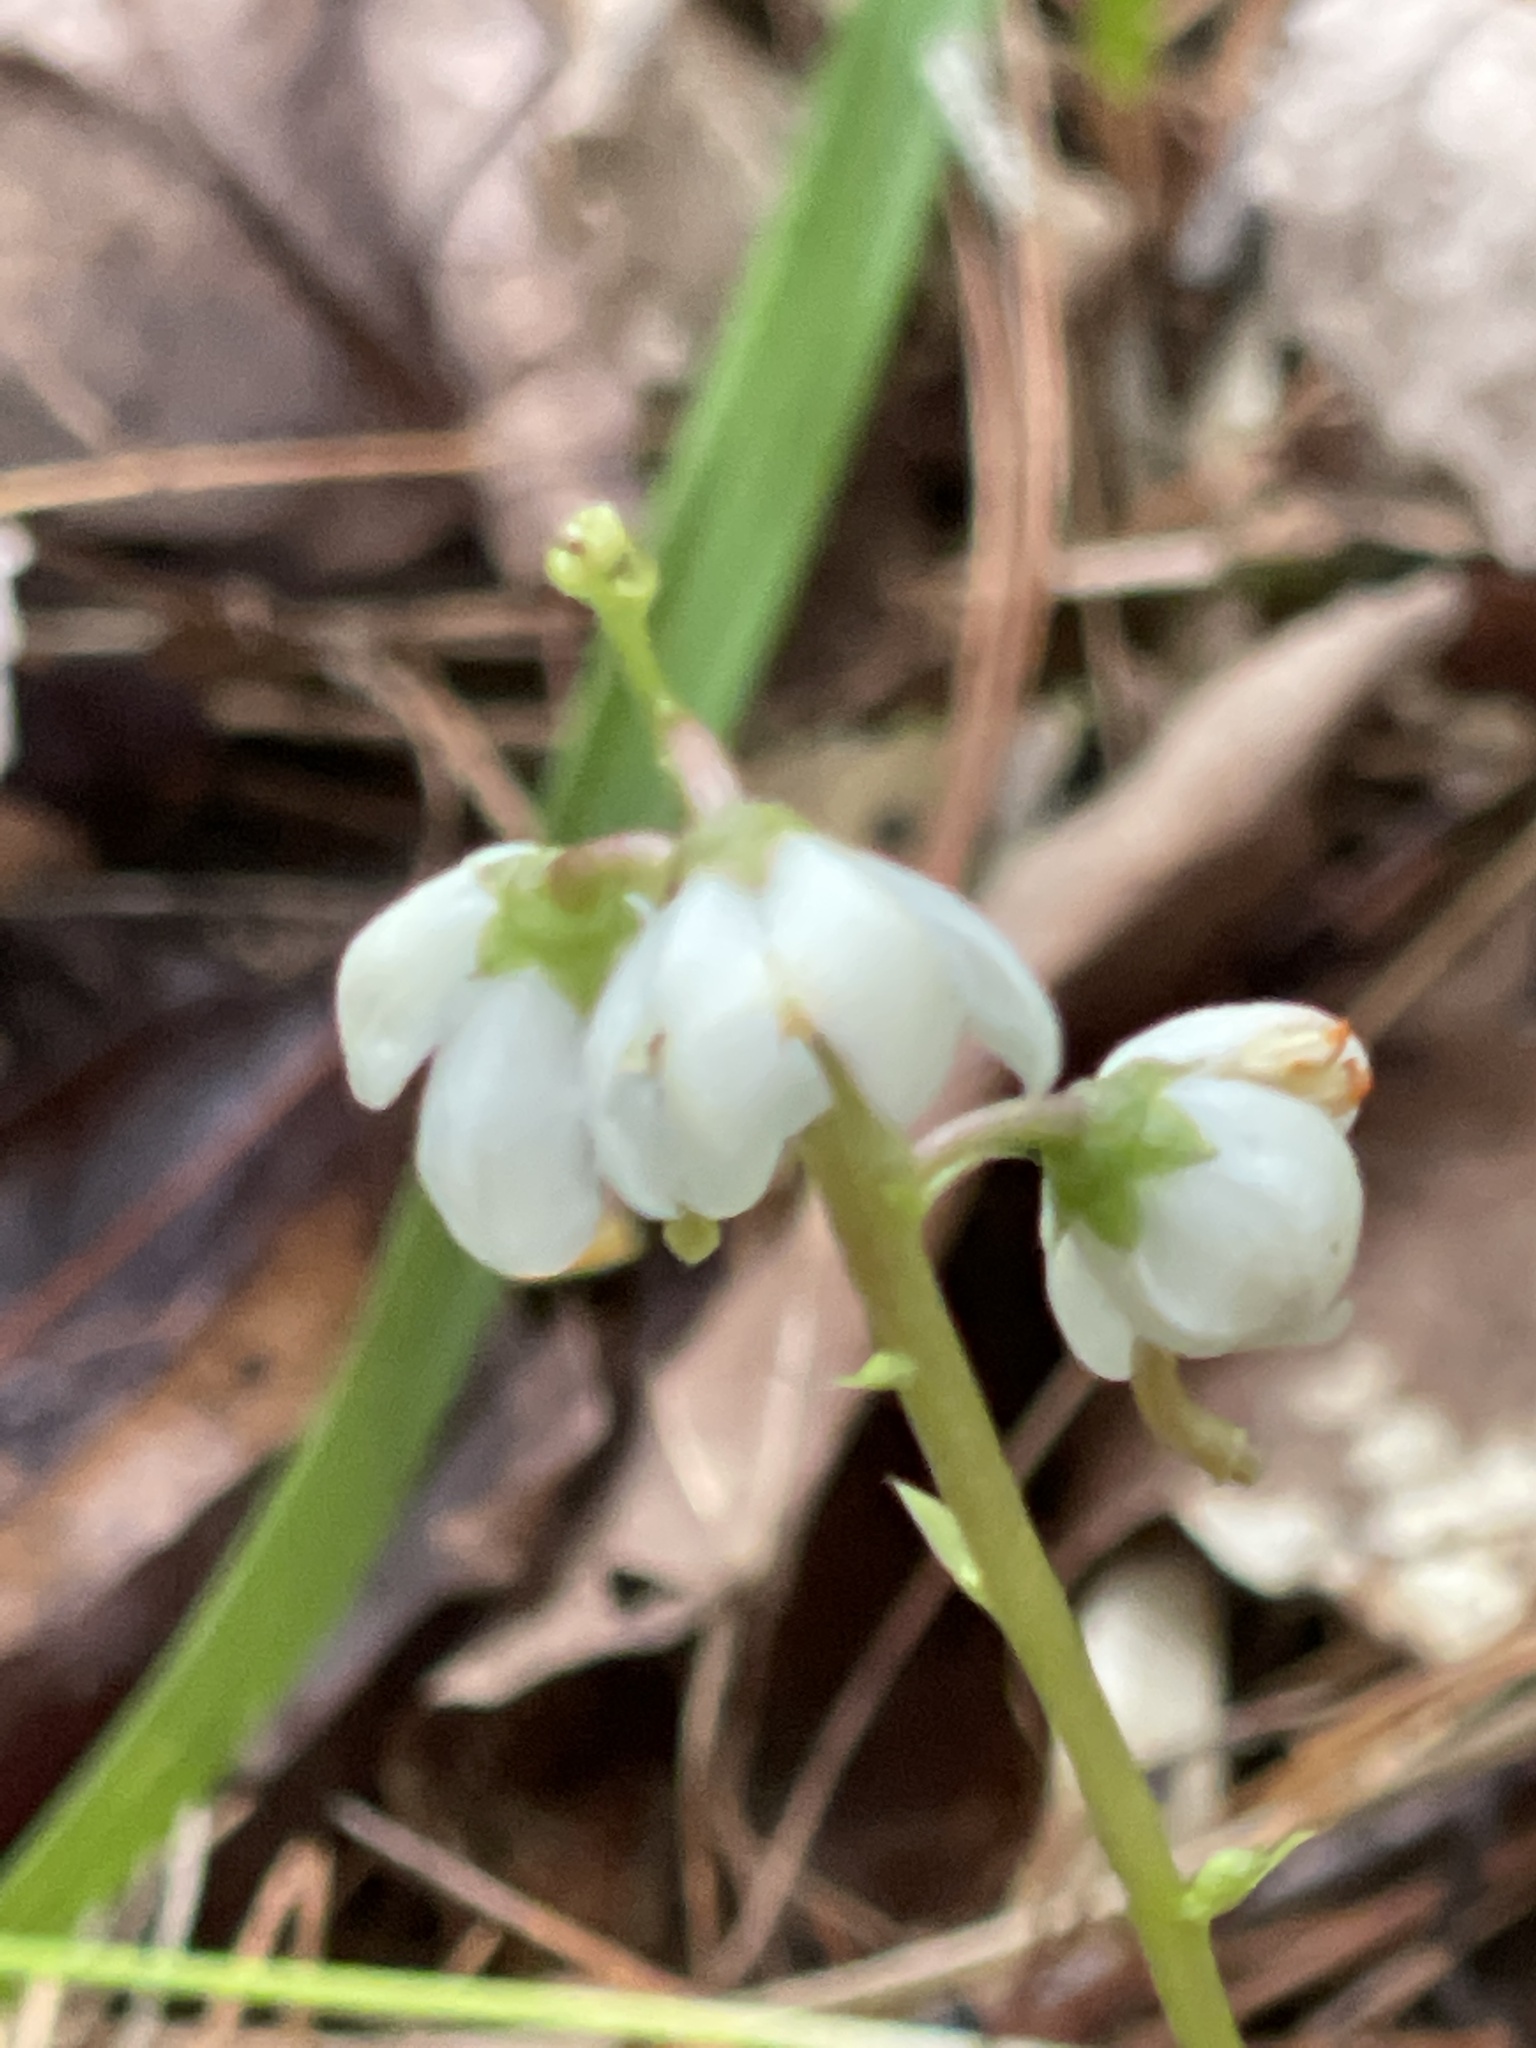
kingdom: Plantae
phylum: Tracheophyta
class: Magnoliopsida
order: Ericales
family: Ericaceae
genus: Pyrola
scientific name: Pyrola elliptica
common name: Shinleaf
